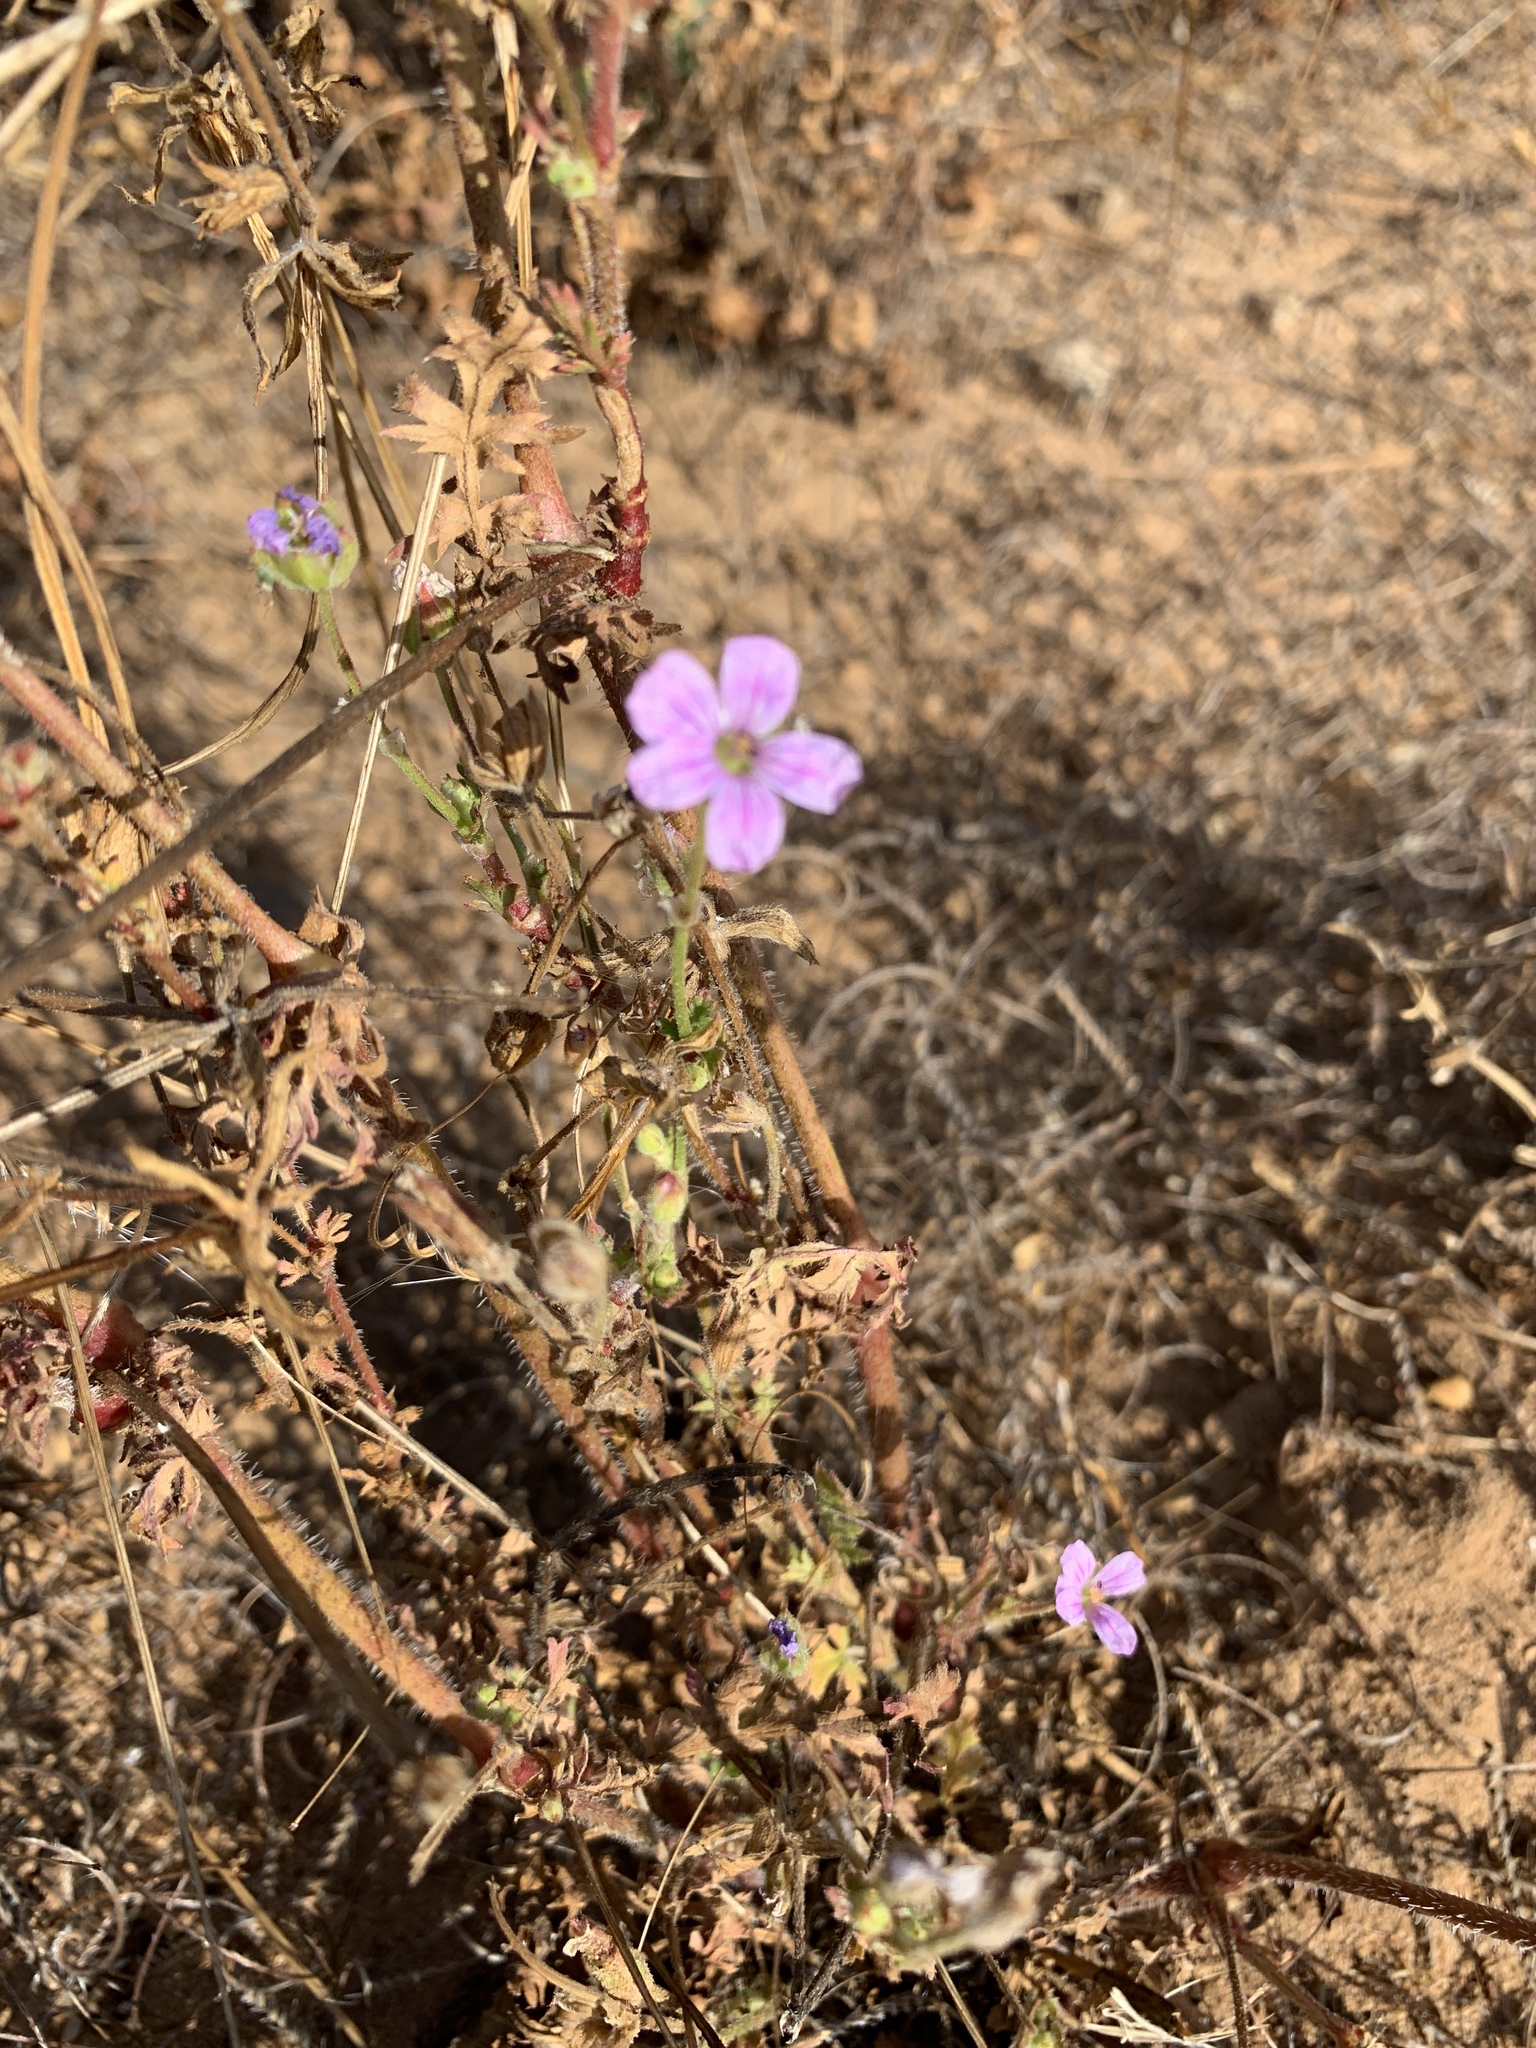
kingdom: Plantae
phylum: Tracheophyta
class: Magnoliopsida
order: Geraniales
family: Geraniaceae
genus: Erodium
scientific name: Erodium botrys
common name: Mediterranean stork's-bill
